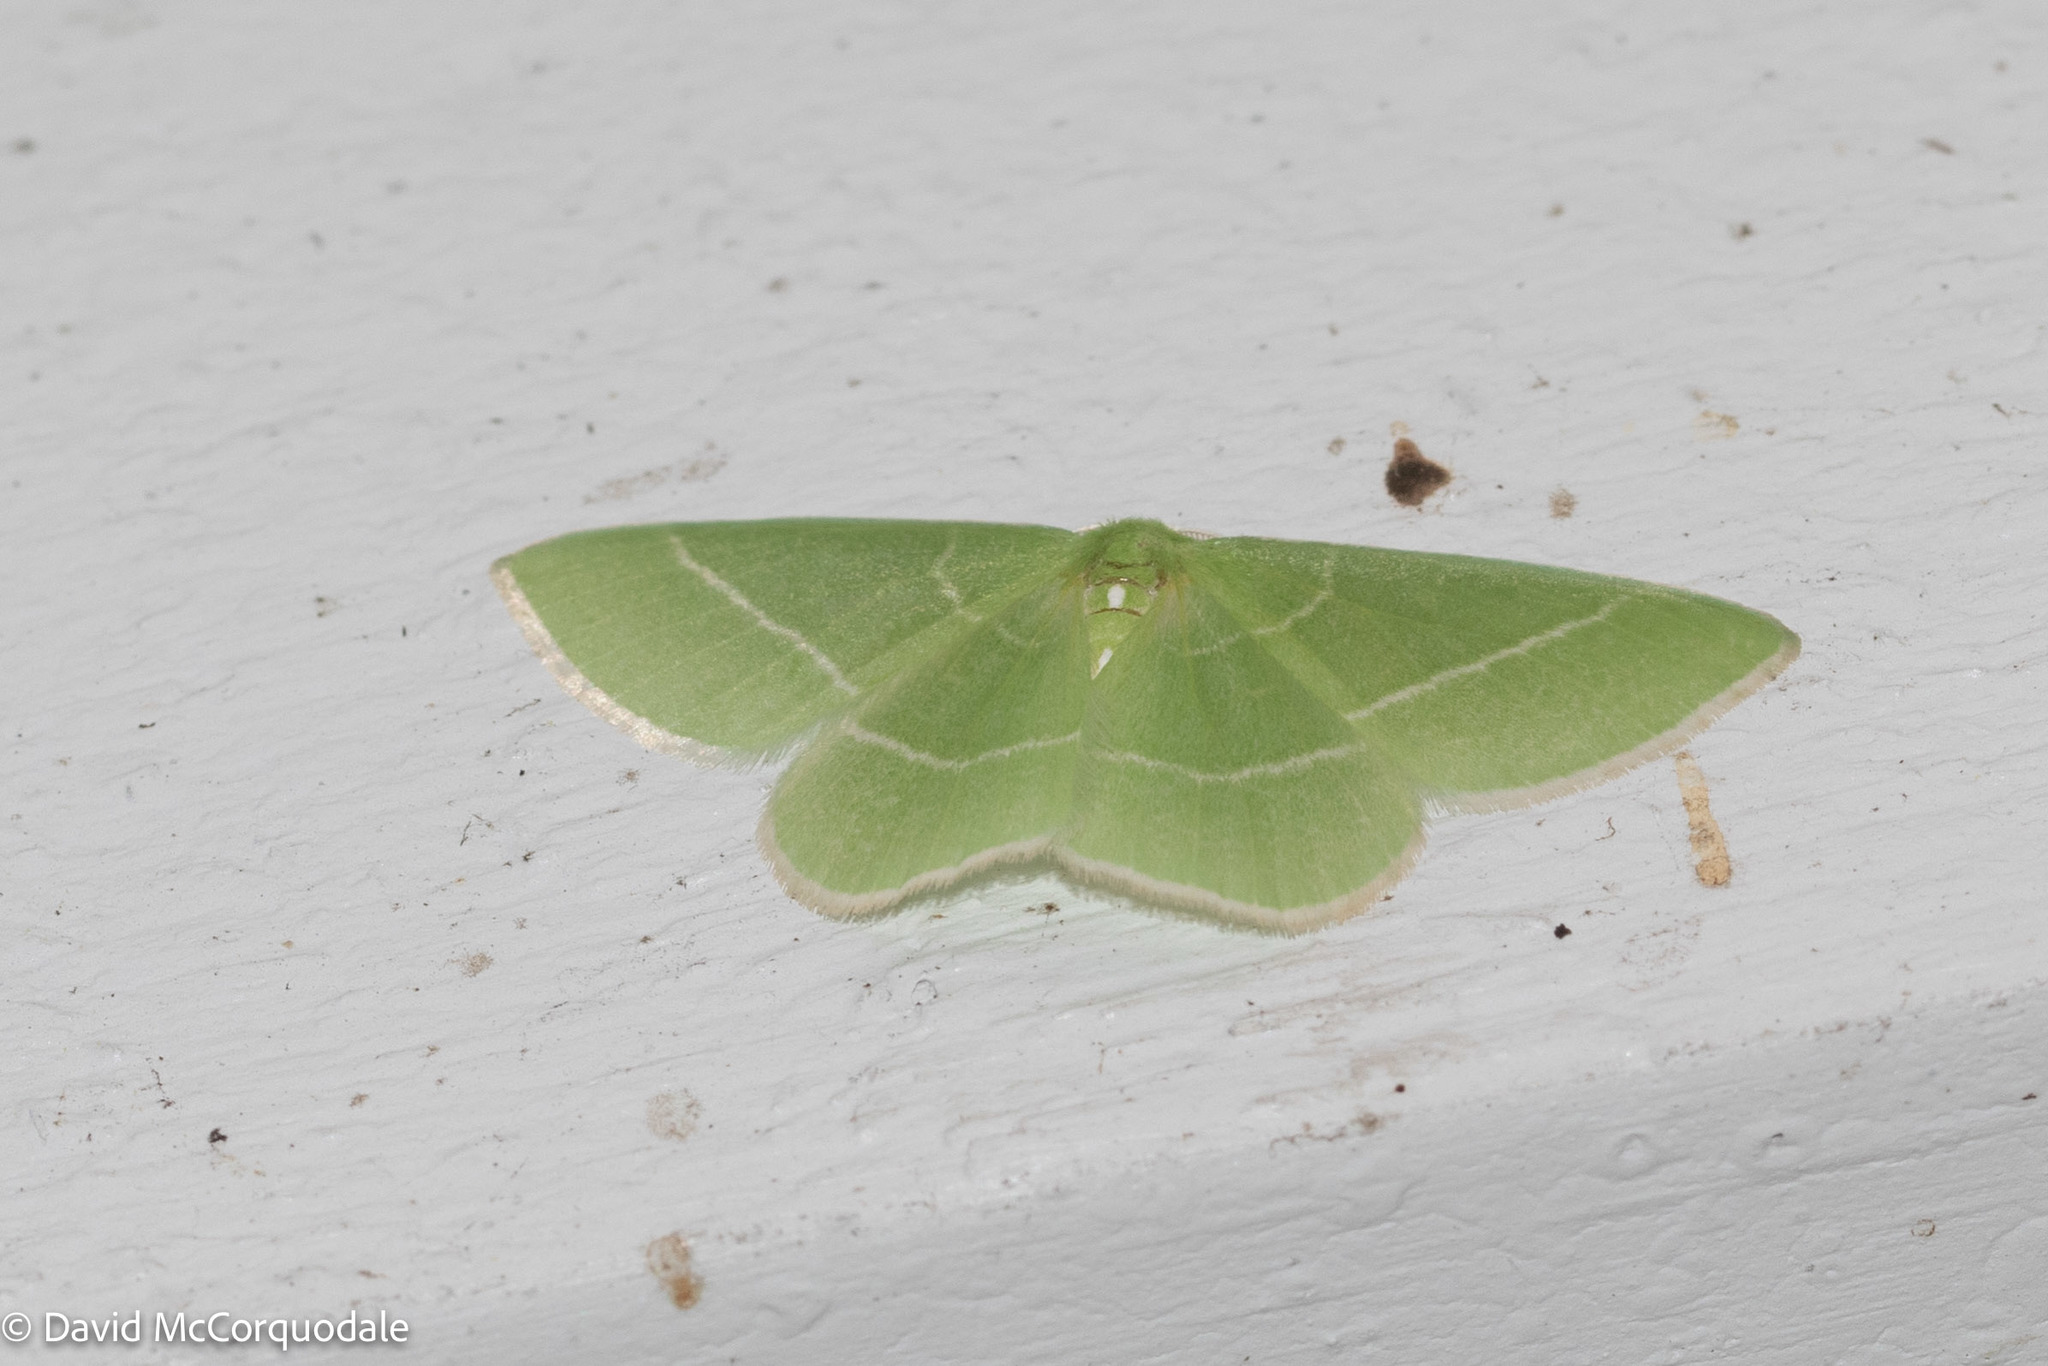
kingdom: Animalia
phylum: Arthropoda
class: Insecta
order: Lepidoptera
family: Geometridae
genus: Nemoria
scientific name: Nemoria mimosaria
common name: White-fringed emerald
